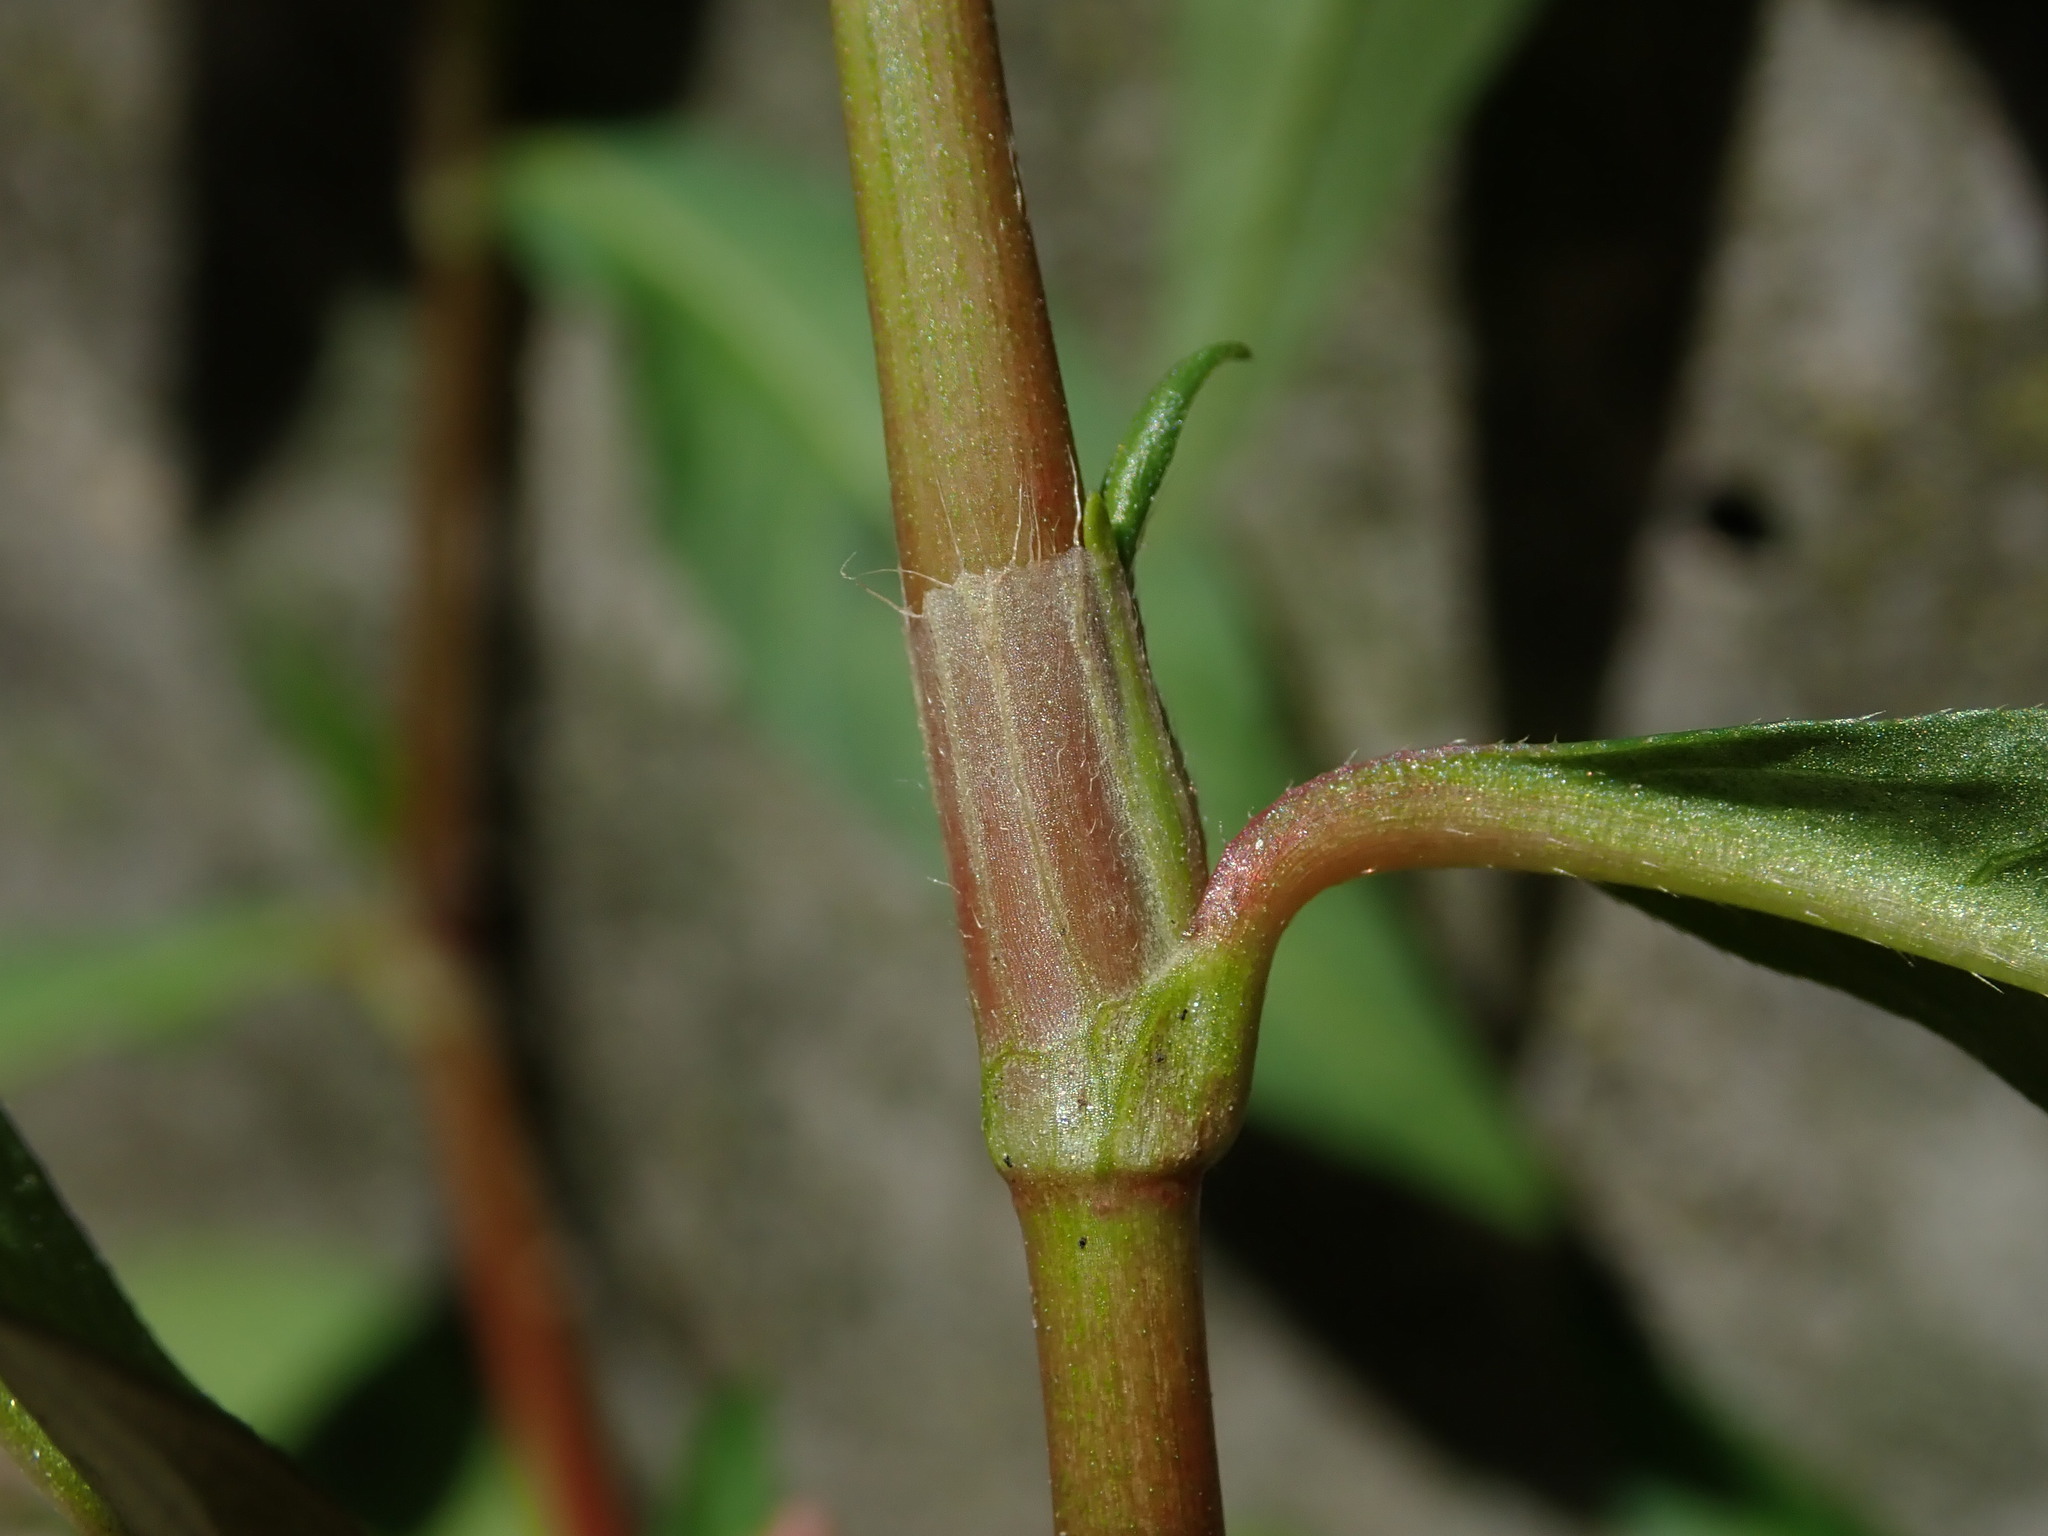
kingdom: Plantae
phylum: Tracheophyta
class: Magnoliopsida
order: Caryophyllales
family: Polygonaceae
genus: Persicaria
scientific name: Persicaria maculosa
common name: Redshank
